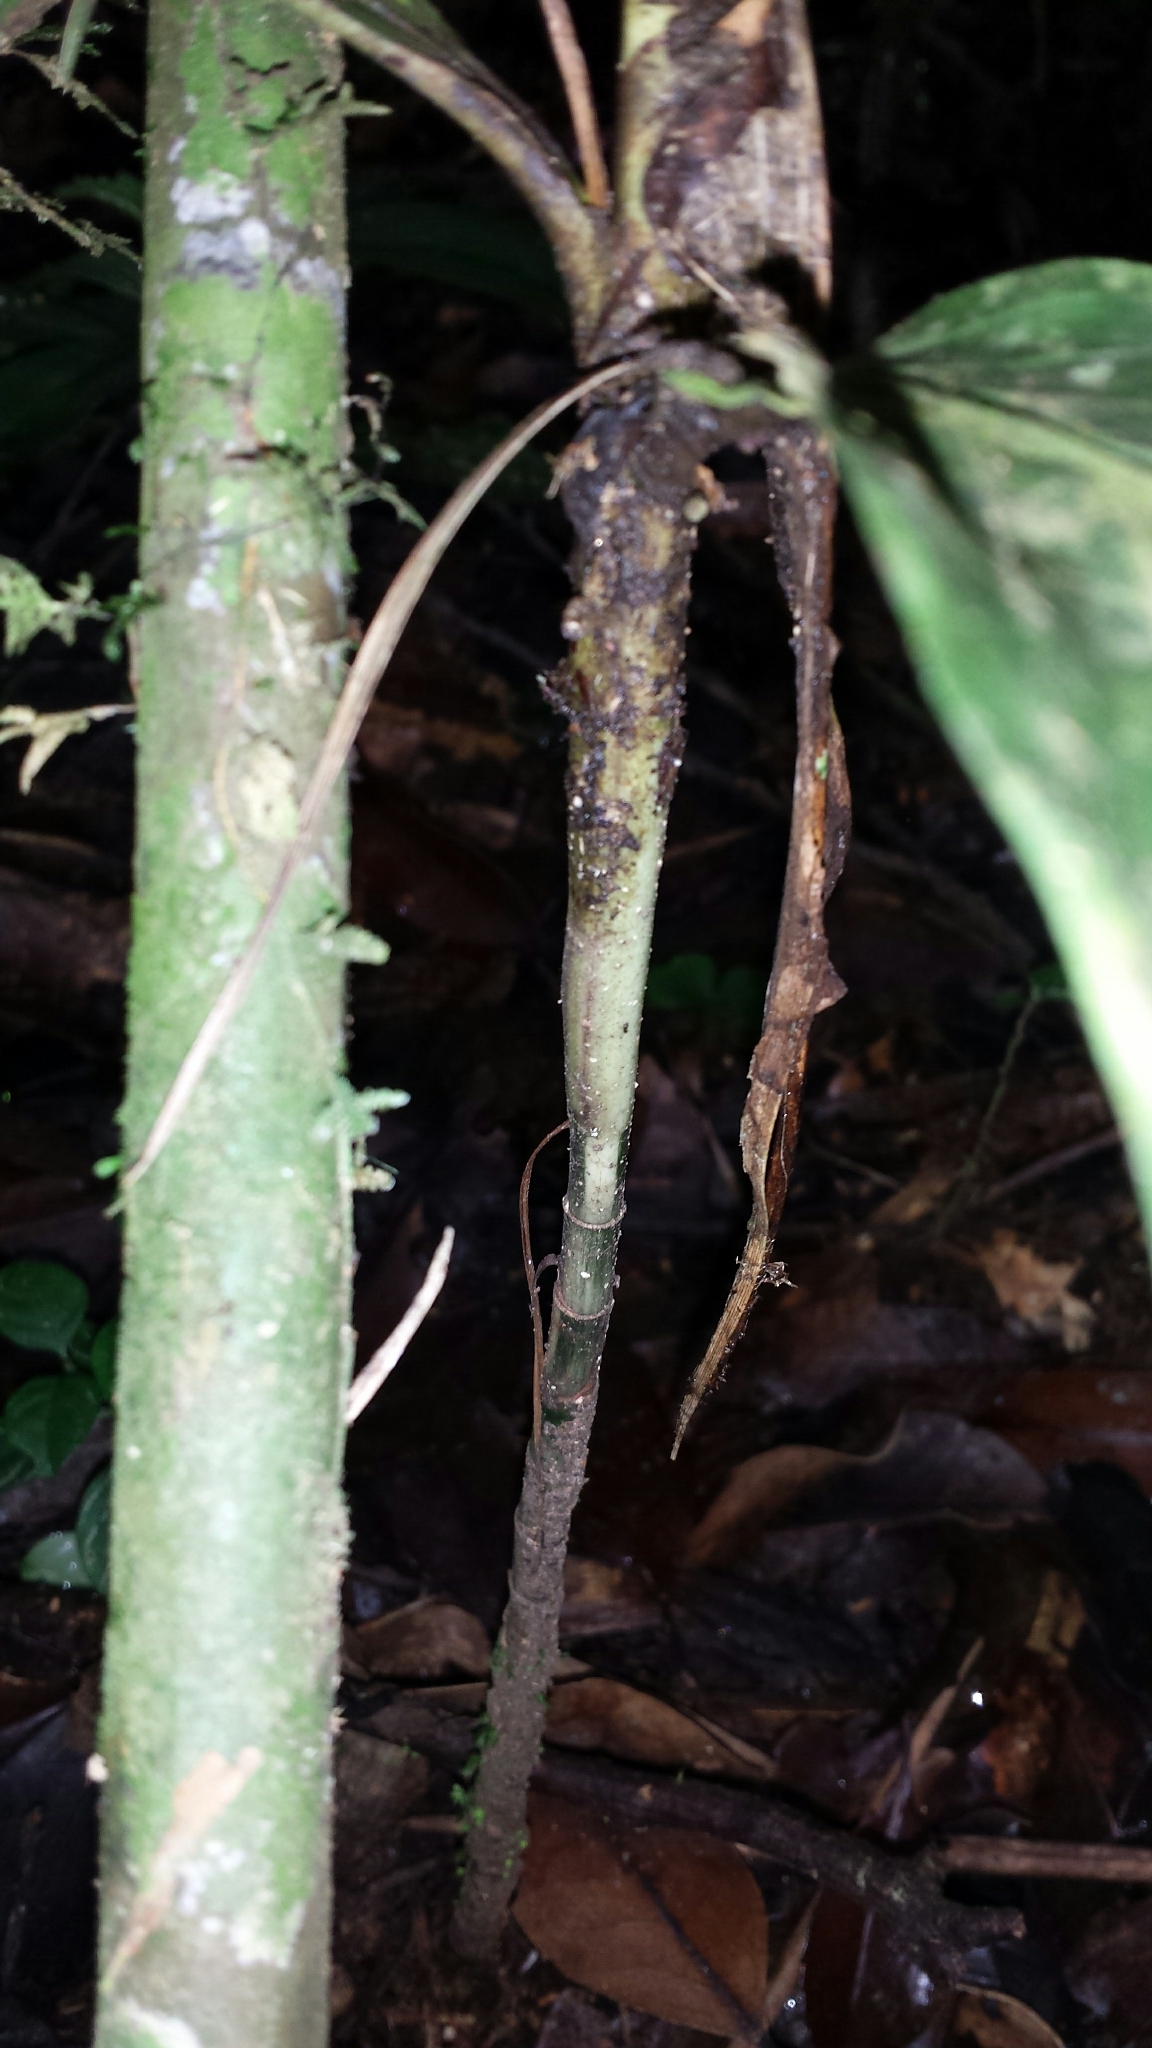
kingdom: Plantae
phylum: Tracheophyta
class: Liliopsida
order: Arecales
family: Arecaceae
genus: Dypsis
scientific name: Dypsis catatiana
